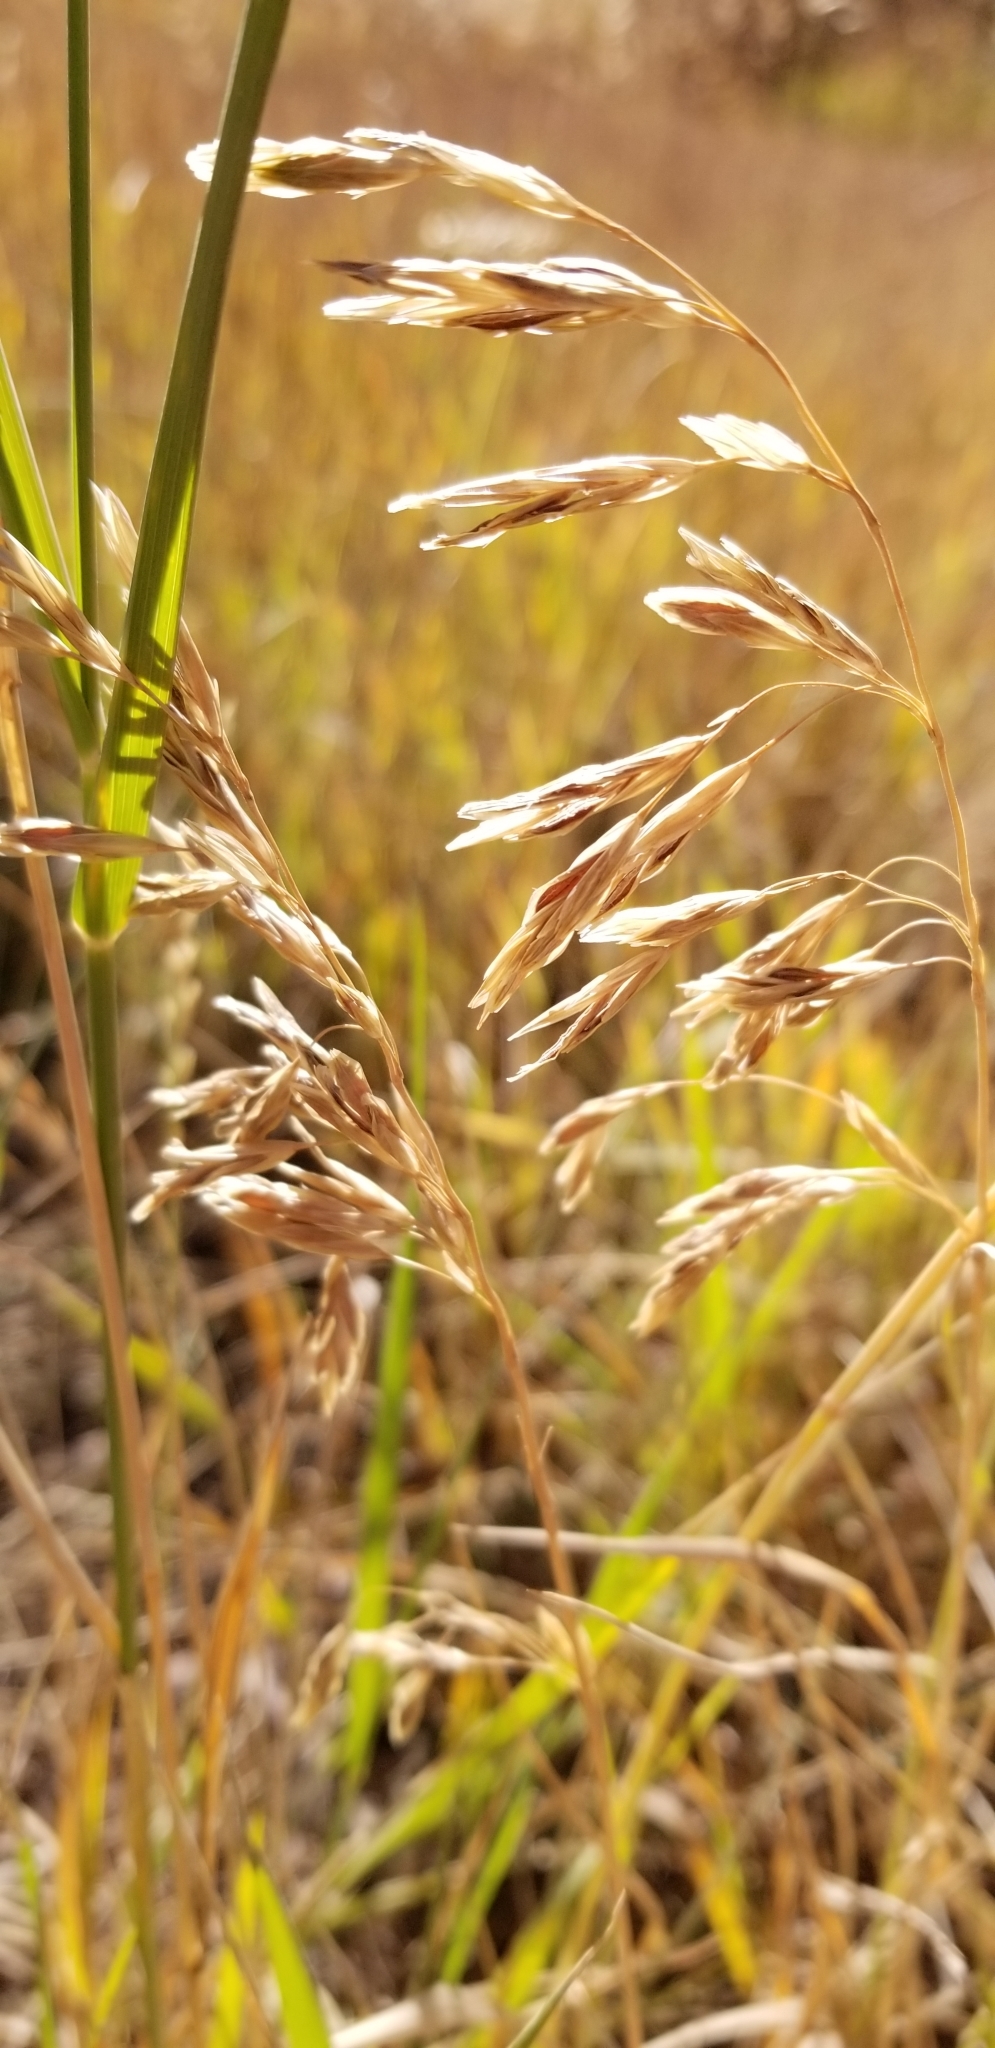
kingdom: Plantae
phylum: Tracheophyta
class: Liliopsida
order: Poales
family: Poaceae
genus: Bromus
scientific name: Bromus inermis
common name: Smooth brome
